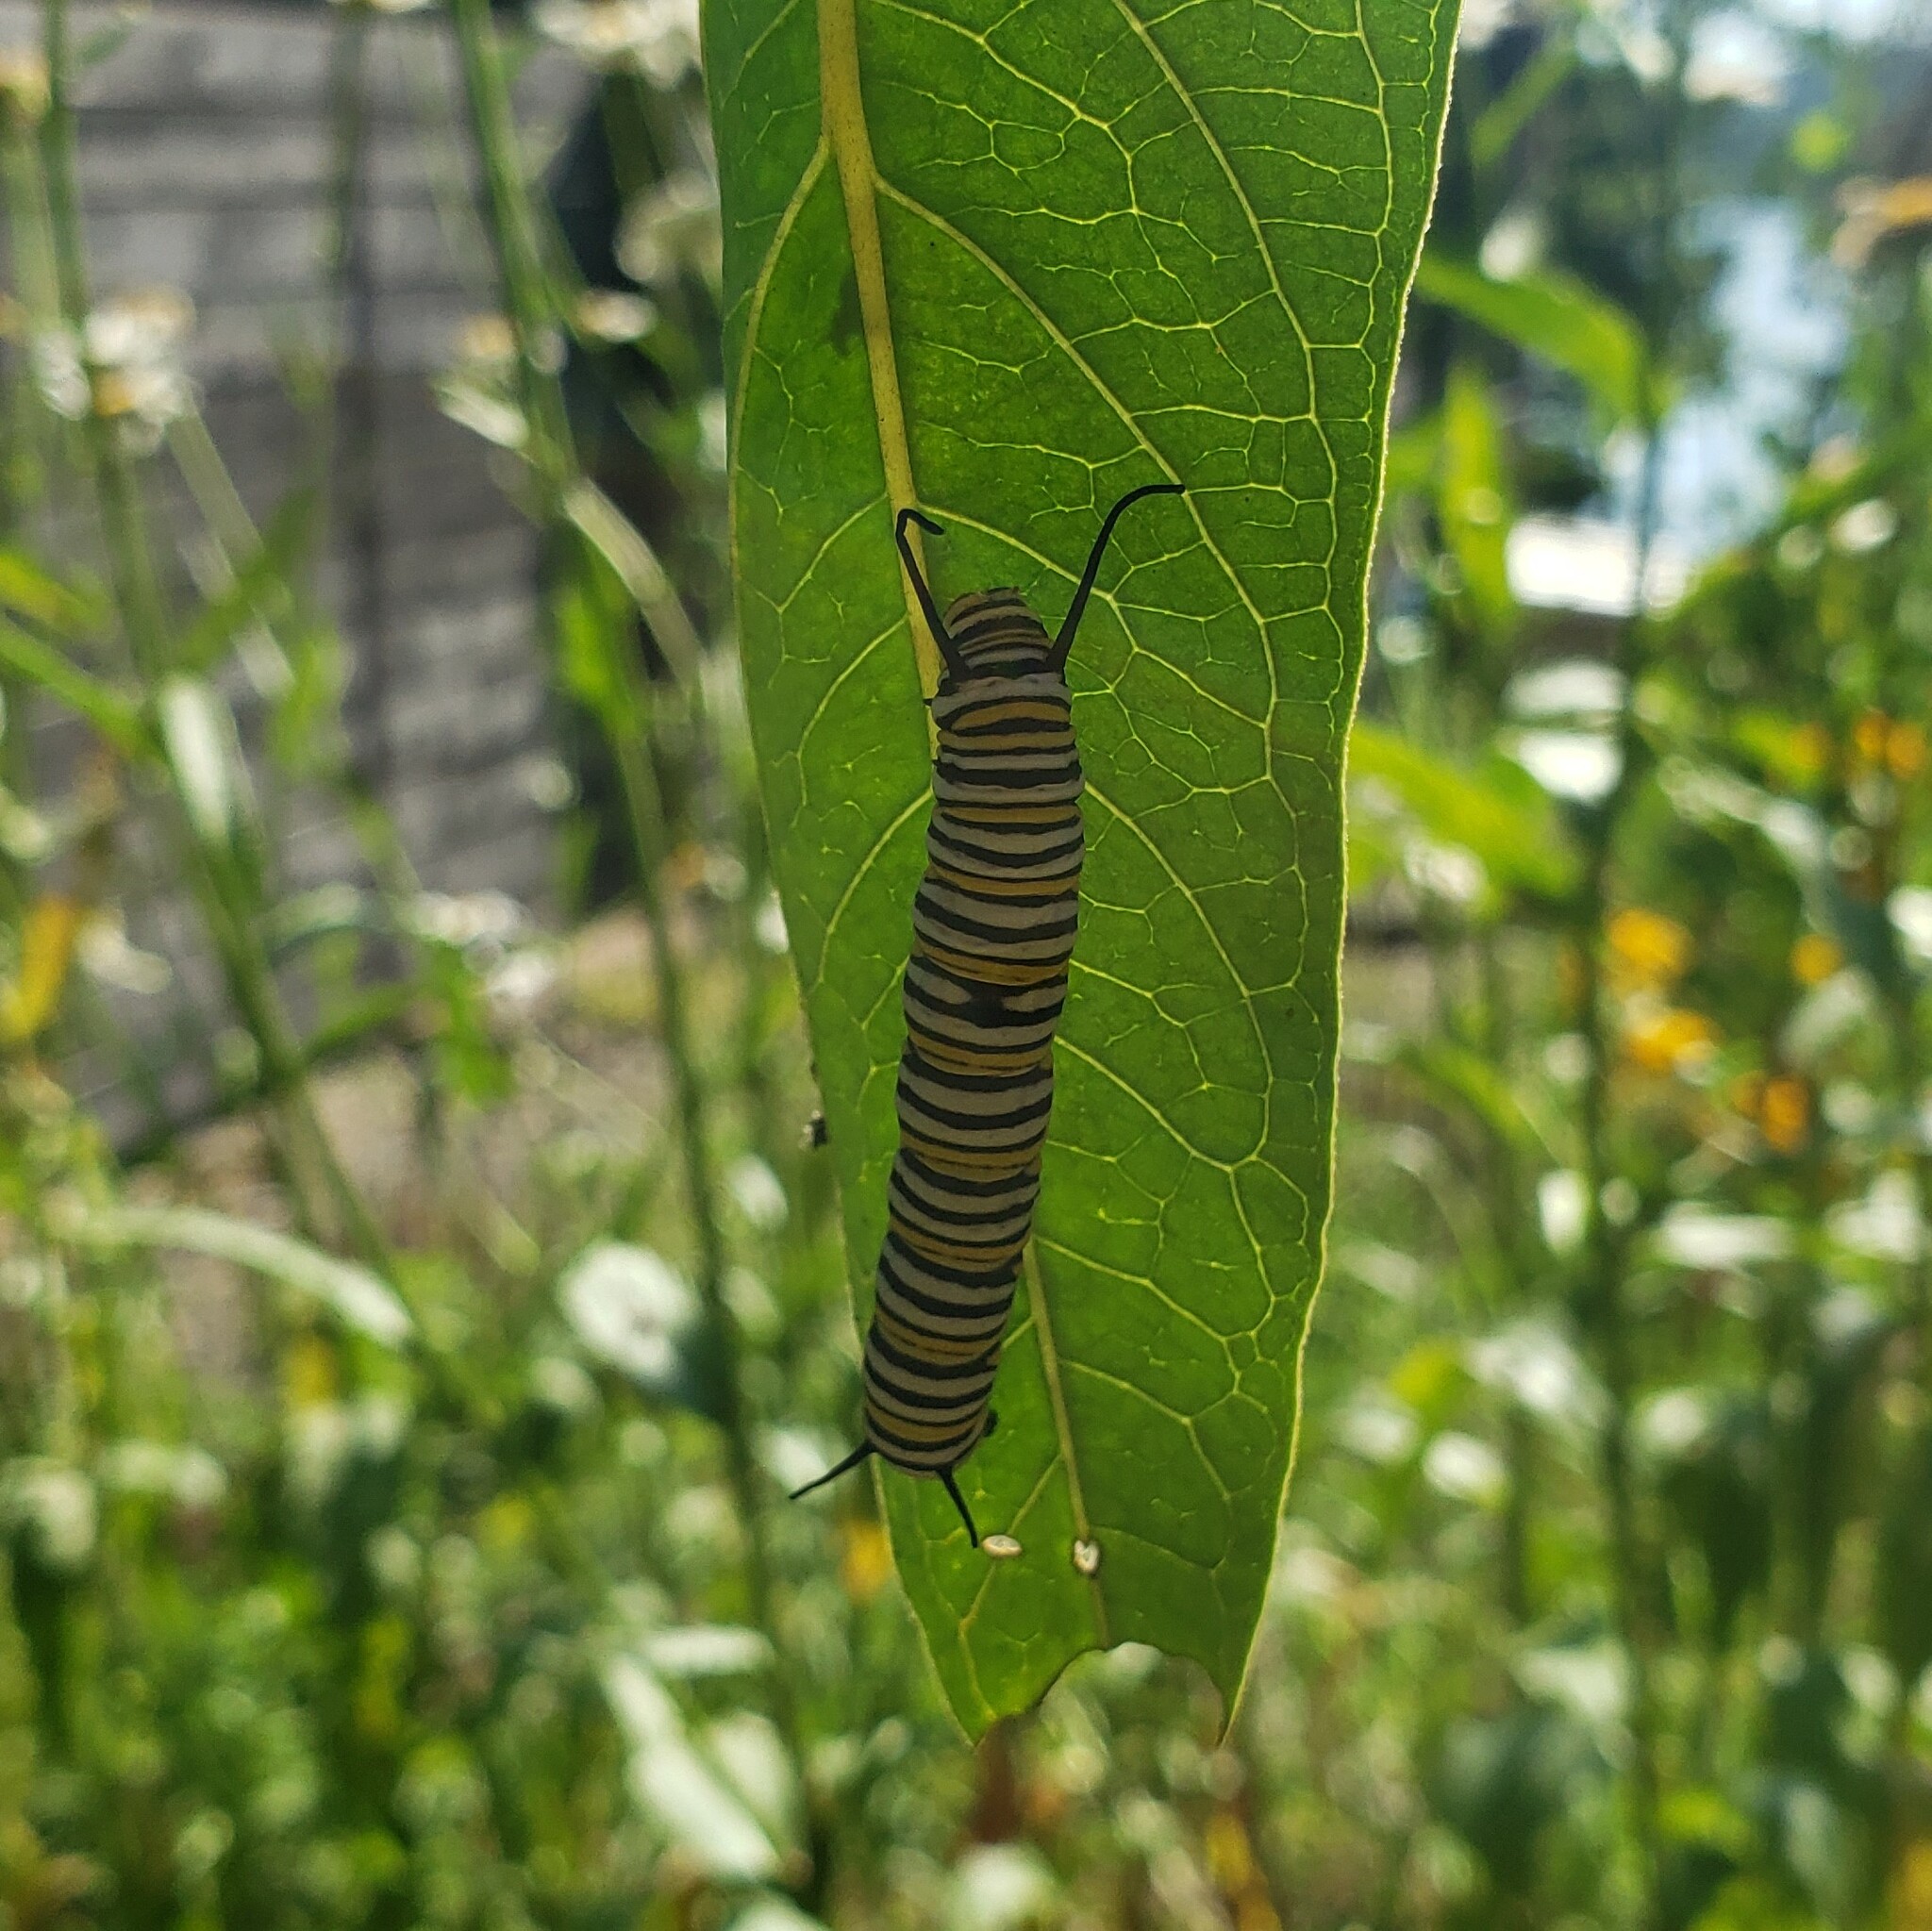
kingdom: Animalia
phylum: Arthropoda
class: Insecta
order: Lepidoptera
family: Nymphalidae
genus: Danaus
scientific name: Danaus plexippus
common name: Monarch
